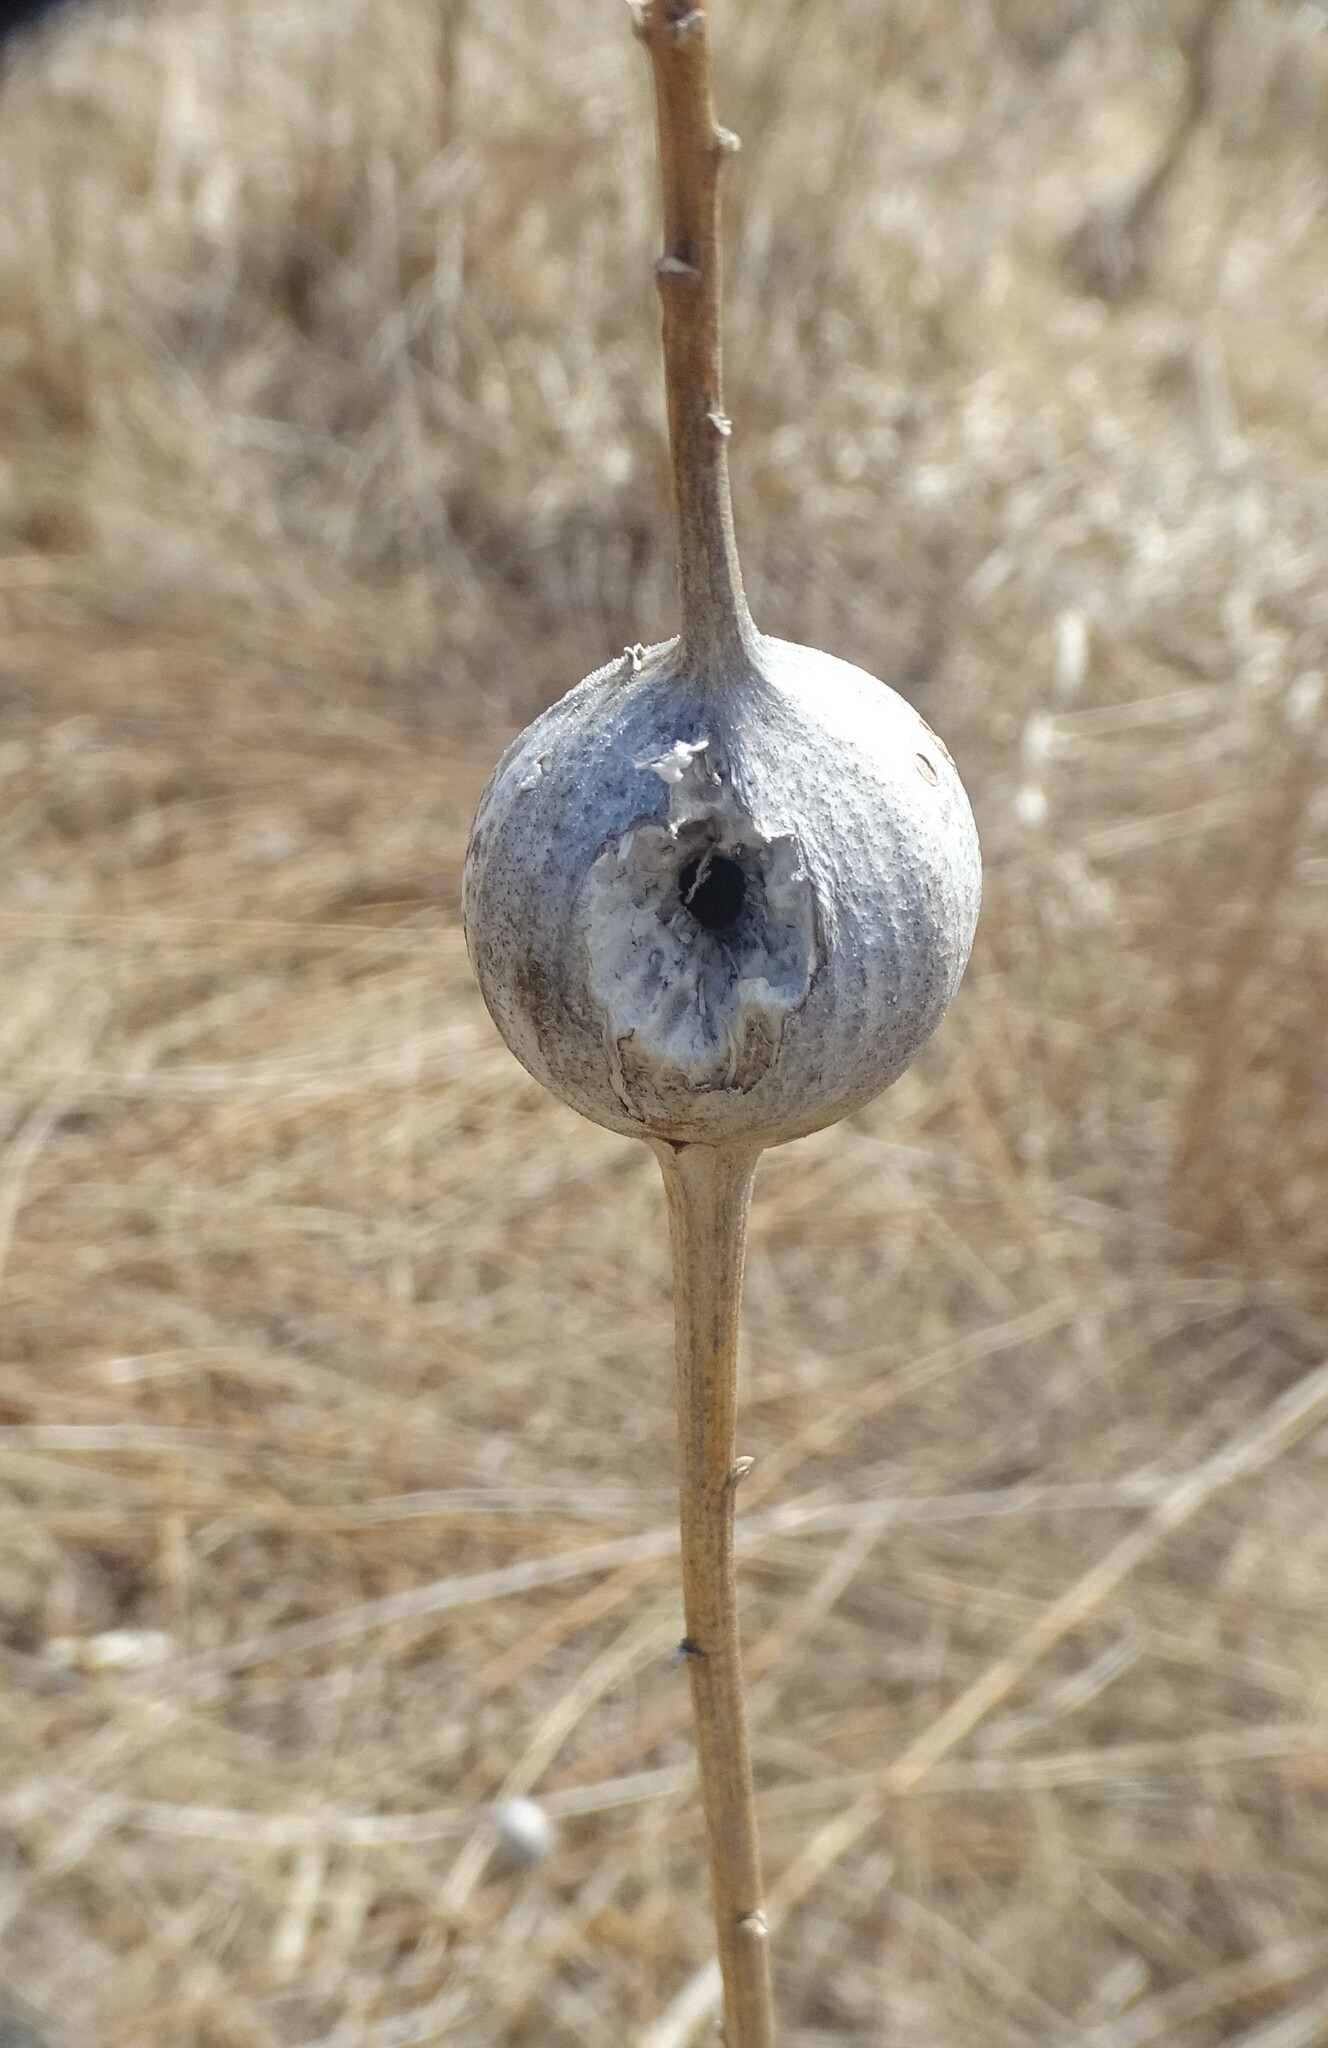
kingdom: Animalia
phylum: Arthropoda
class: Insecta
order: Diptera
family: Tephritidae
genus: Eurosta
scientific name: Eurosta solidaginis
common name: Goldenrod gall fly
